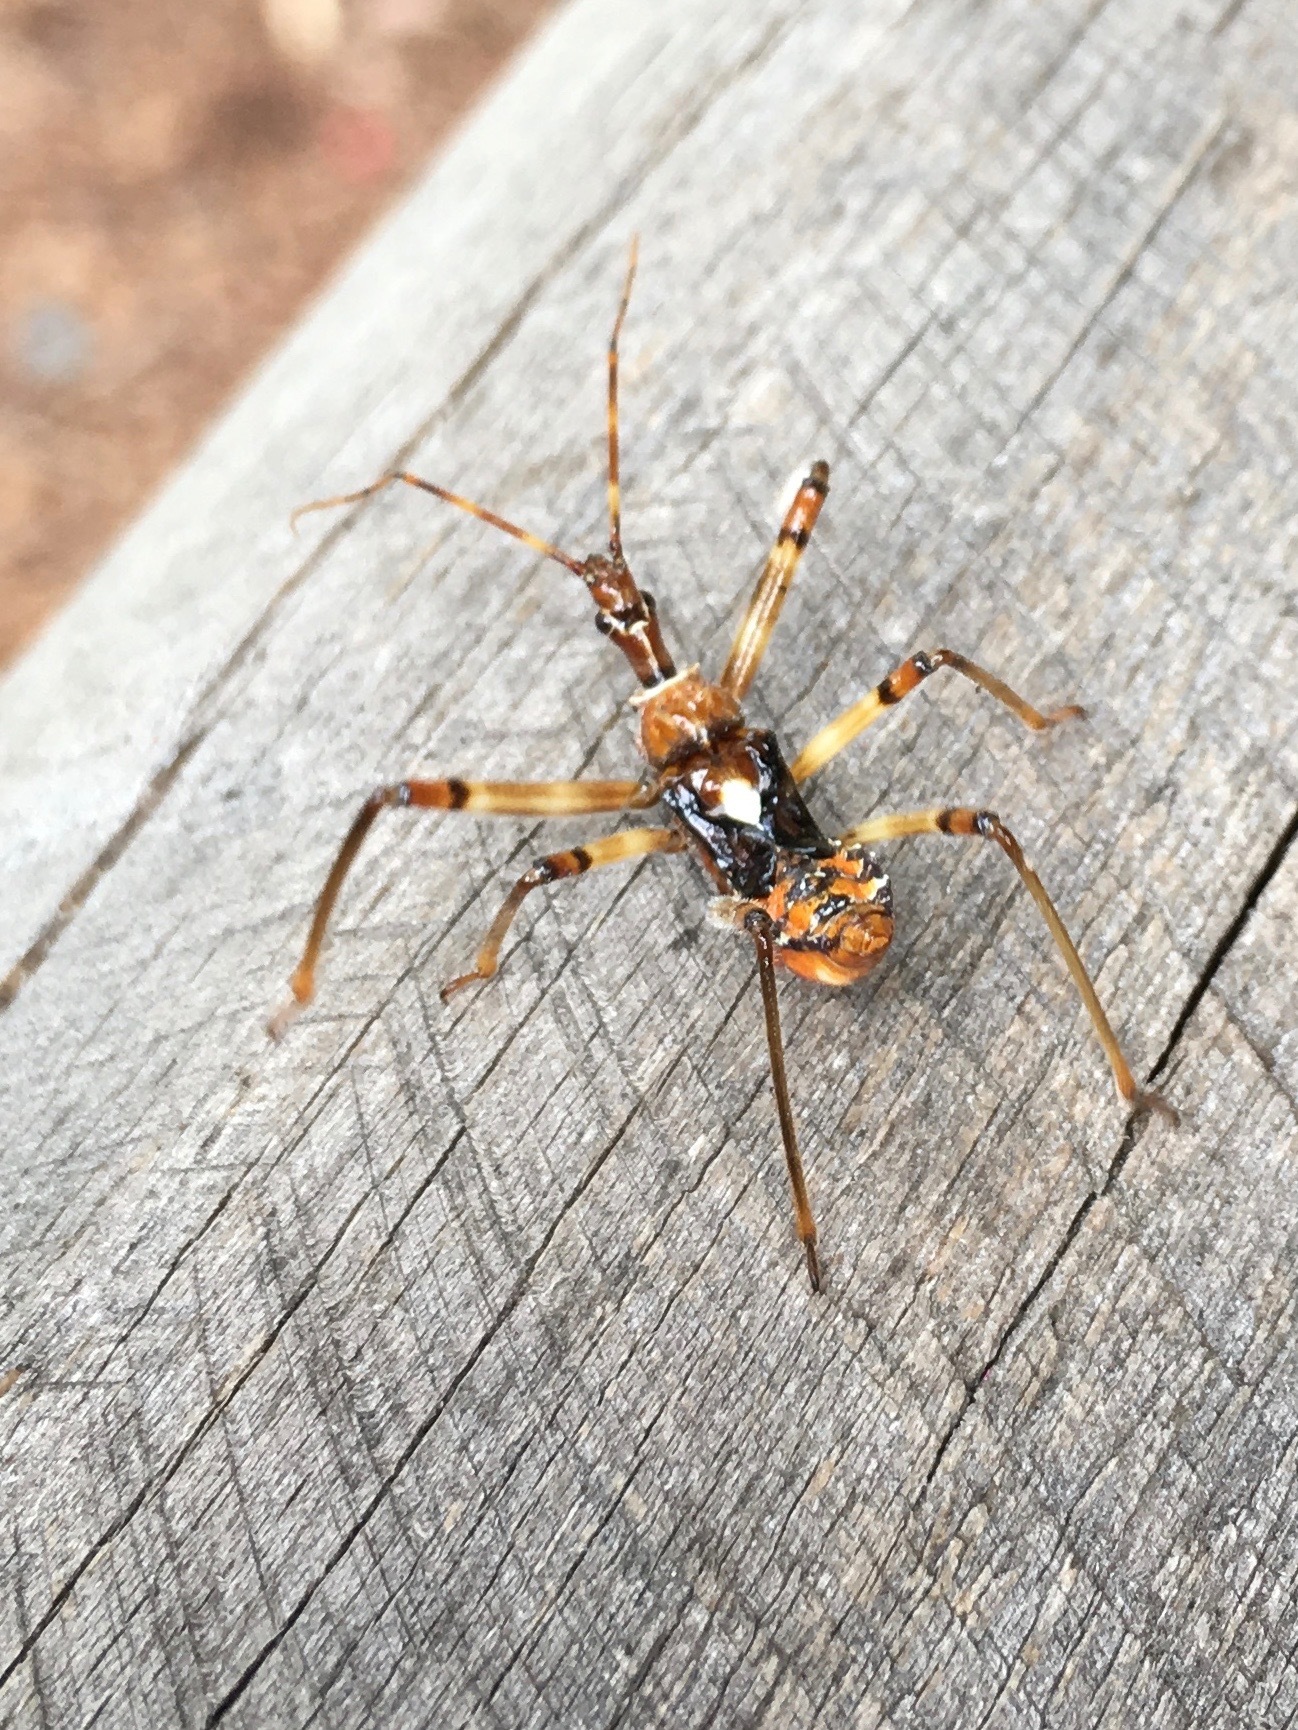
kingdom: Animalia
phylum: Arthropoda
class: Insecta
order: Hemiptera
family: Reduviidae
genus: Pristhesancus
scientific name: Pristhesancus plagipennis
